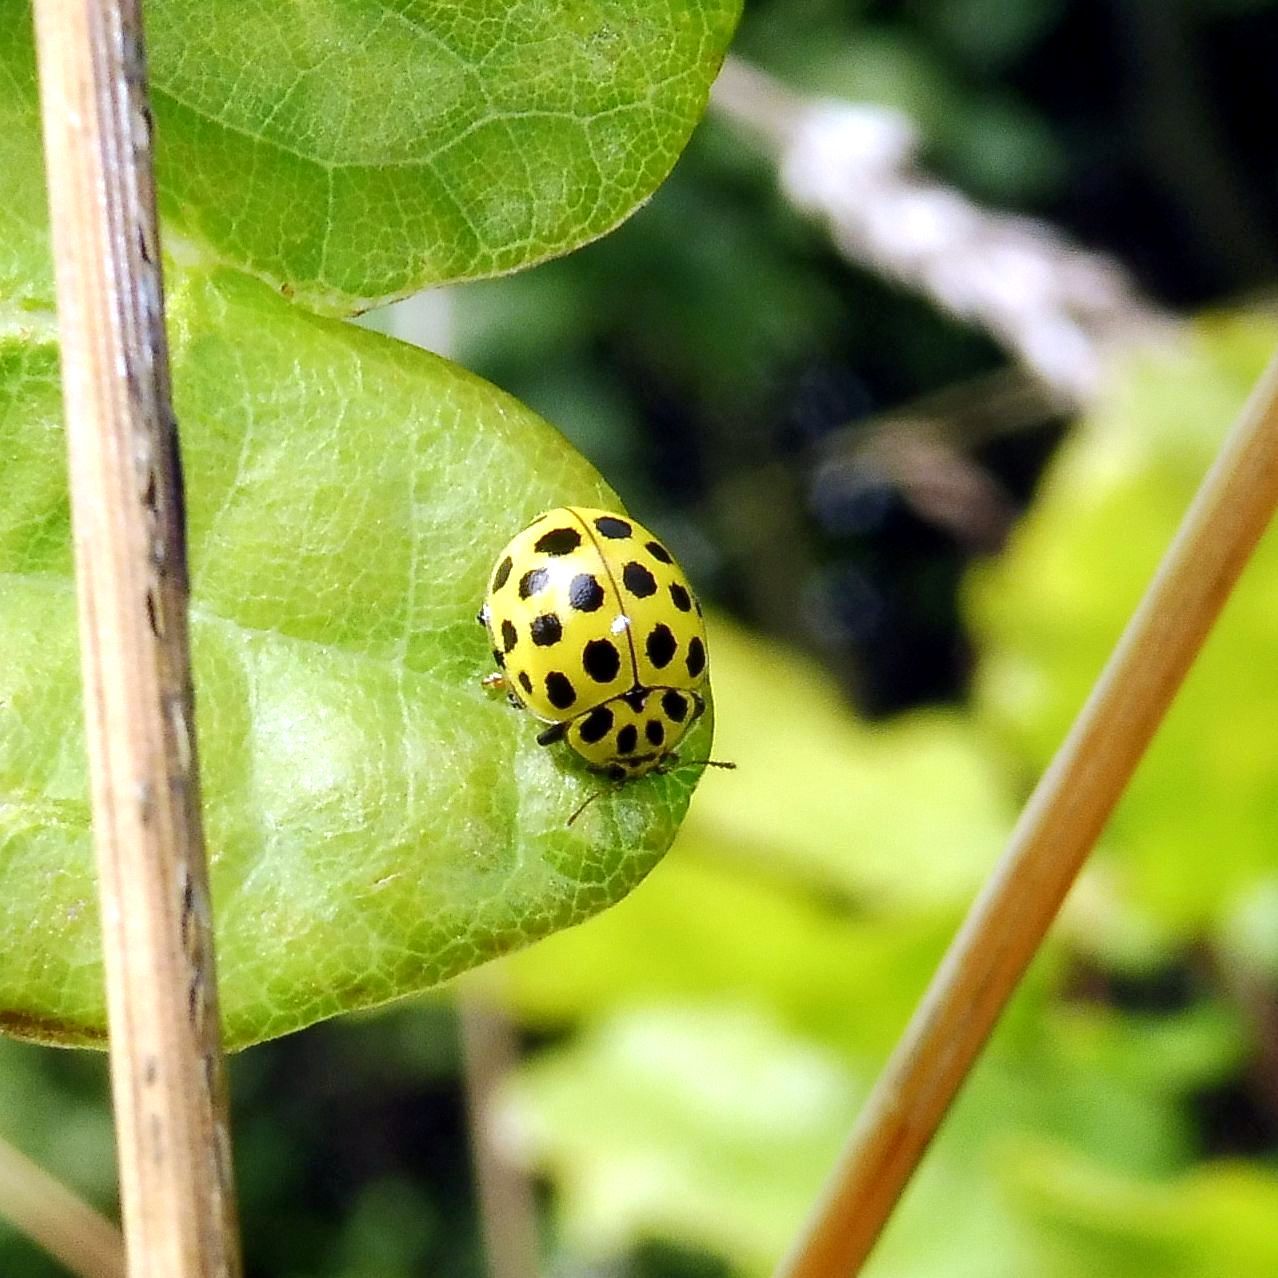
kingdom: Animalia
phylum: Arthropoda
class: Insecta
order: Coleoptera
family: Coccinellidae
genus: Psyllobora
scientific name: Psyllobora vigintiduopunctata
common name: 22-spot ladybird
